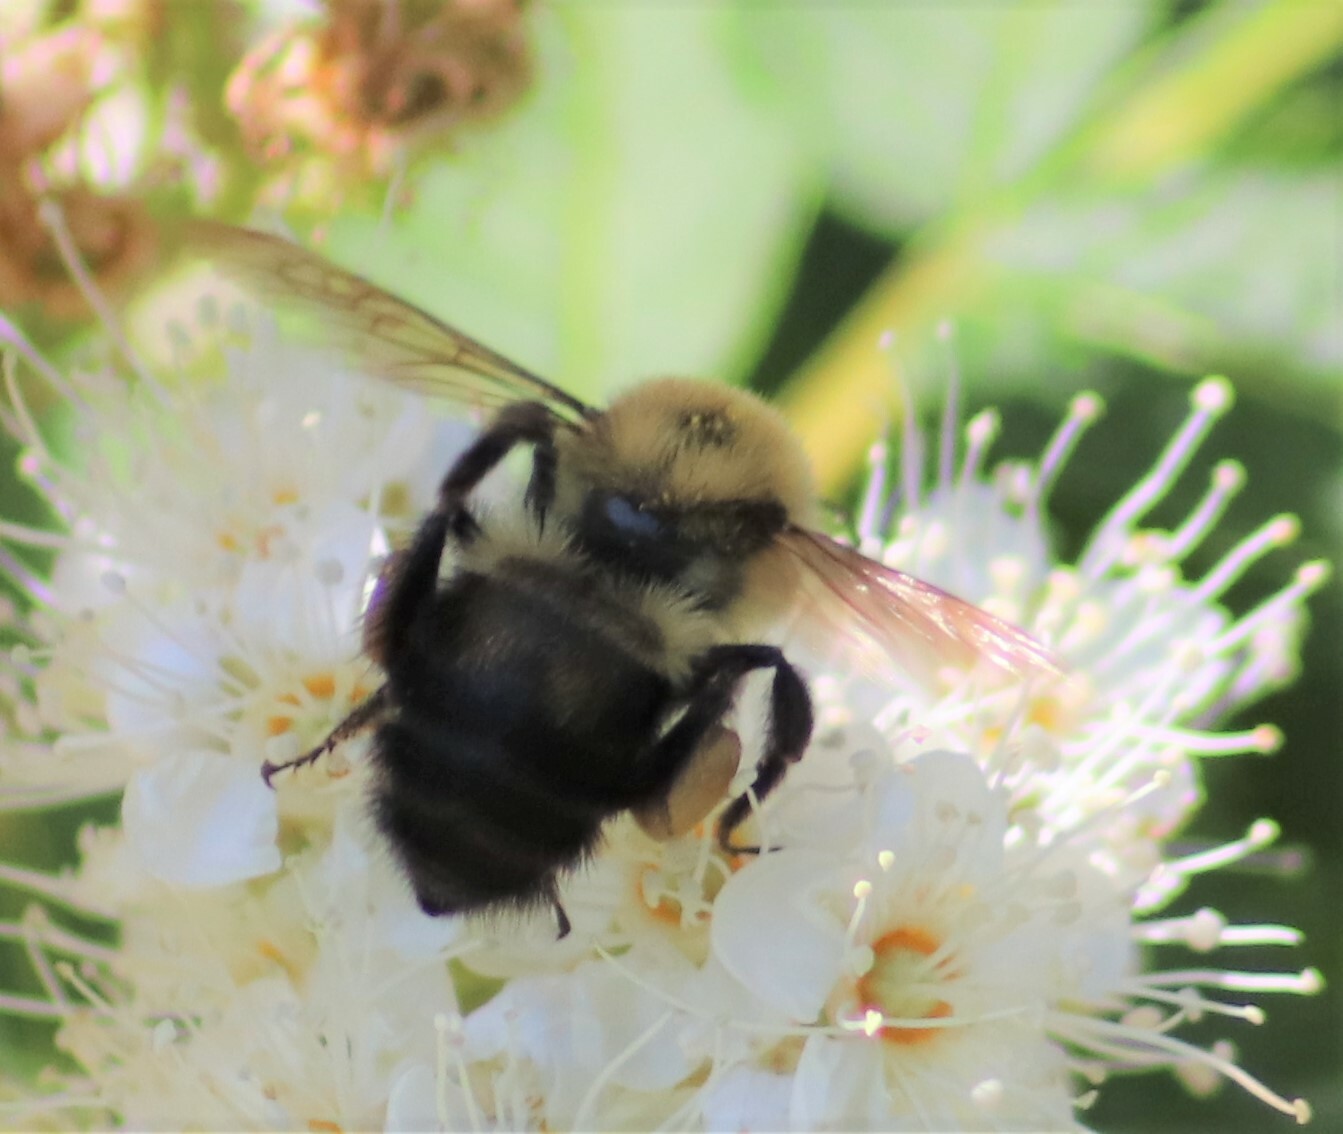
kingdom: Animalia
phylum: Arthropoda
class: Insecta
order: Hymenoptera
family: Apidae
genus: Bombus
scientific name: Bombus bimaculatus
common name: Two-spotted bumble bee
